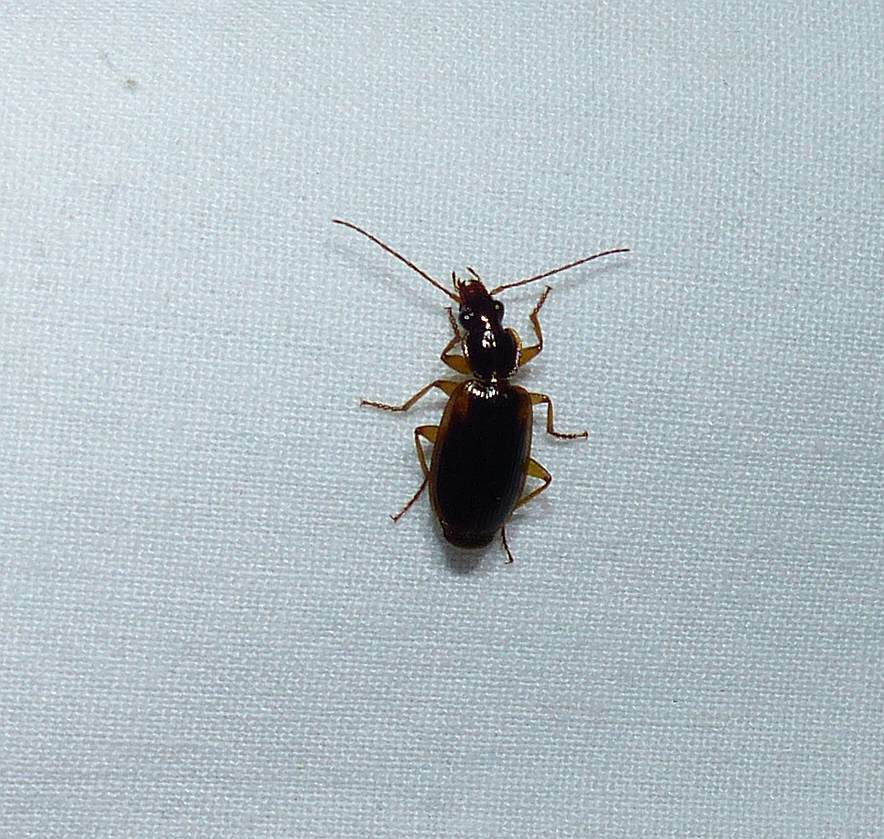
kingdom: Animalia
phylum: Arthropoda
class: Insecta
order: Coleoptera
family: Carabidae
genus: Pinacodera
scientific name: Pinacodera limbata
